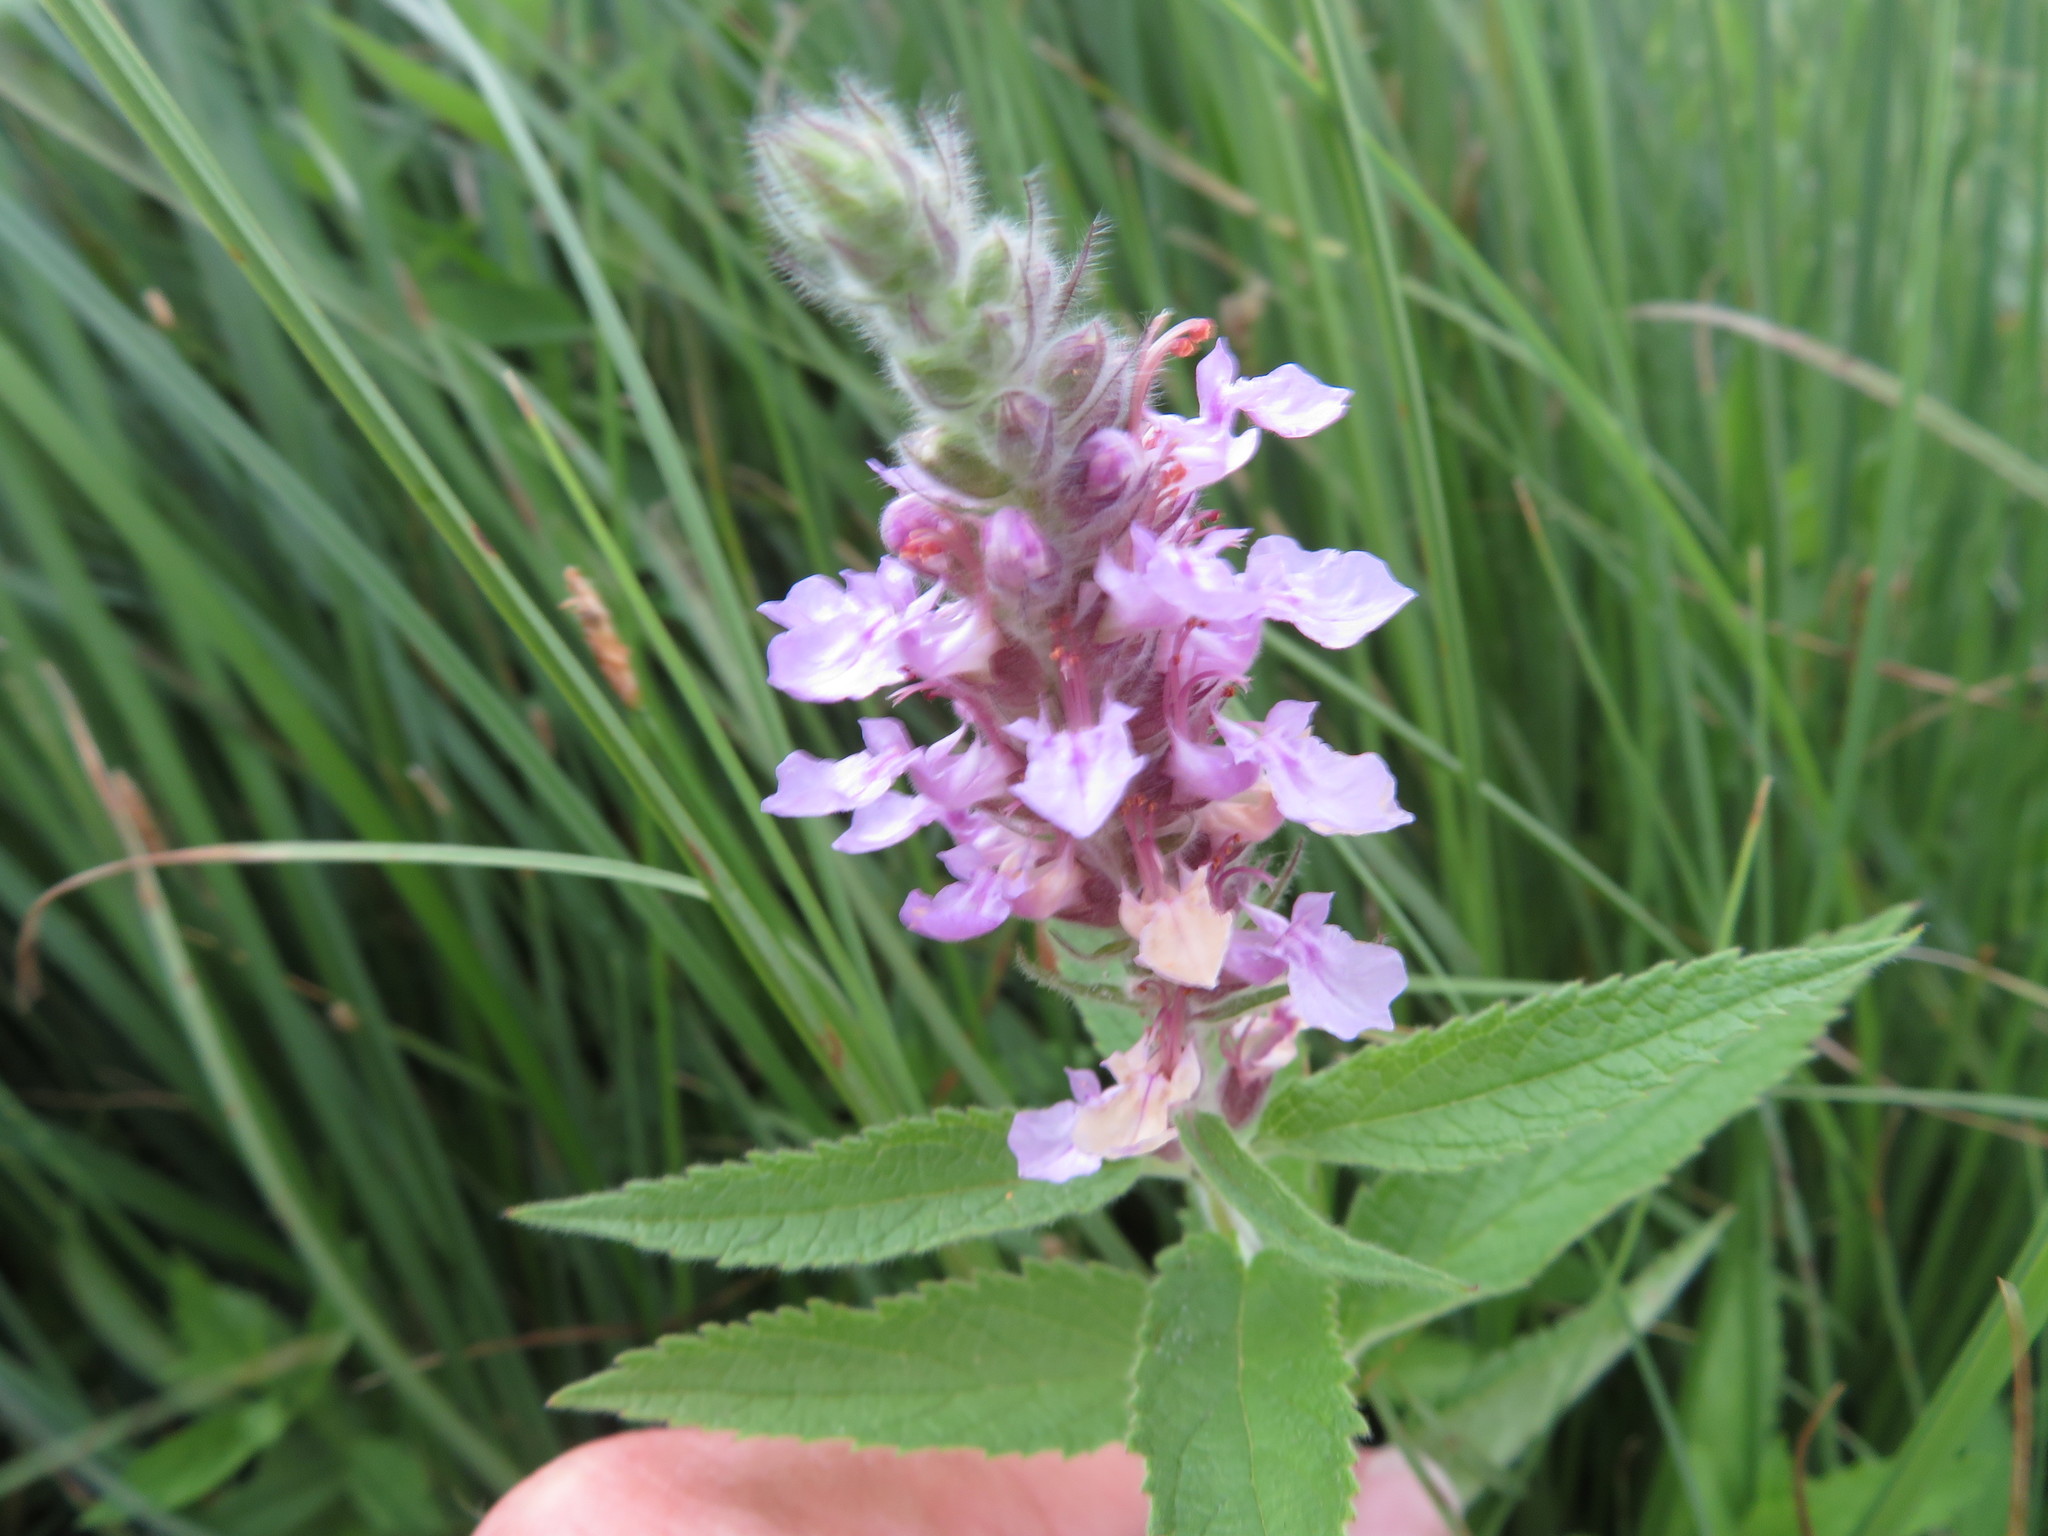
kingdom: Plantae
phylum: Tracheophyta
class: Magnoliopsida
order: Lamiales
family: Lamiaceae
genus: Teucrium
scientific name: Teucrium canadense
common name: American germander
